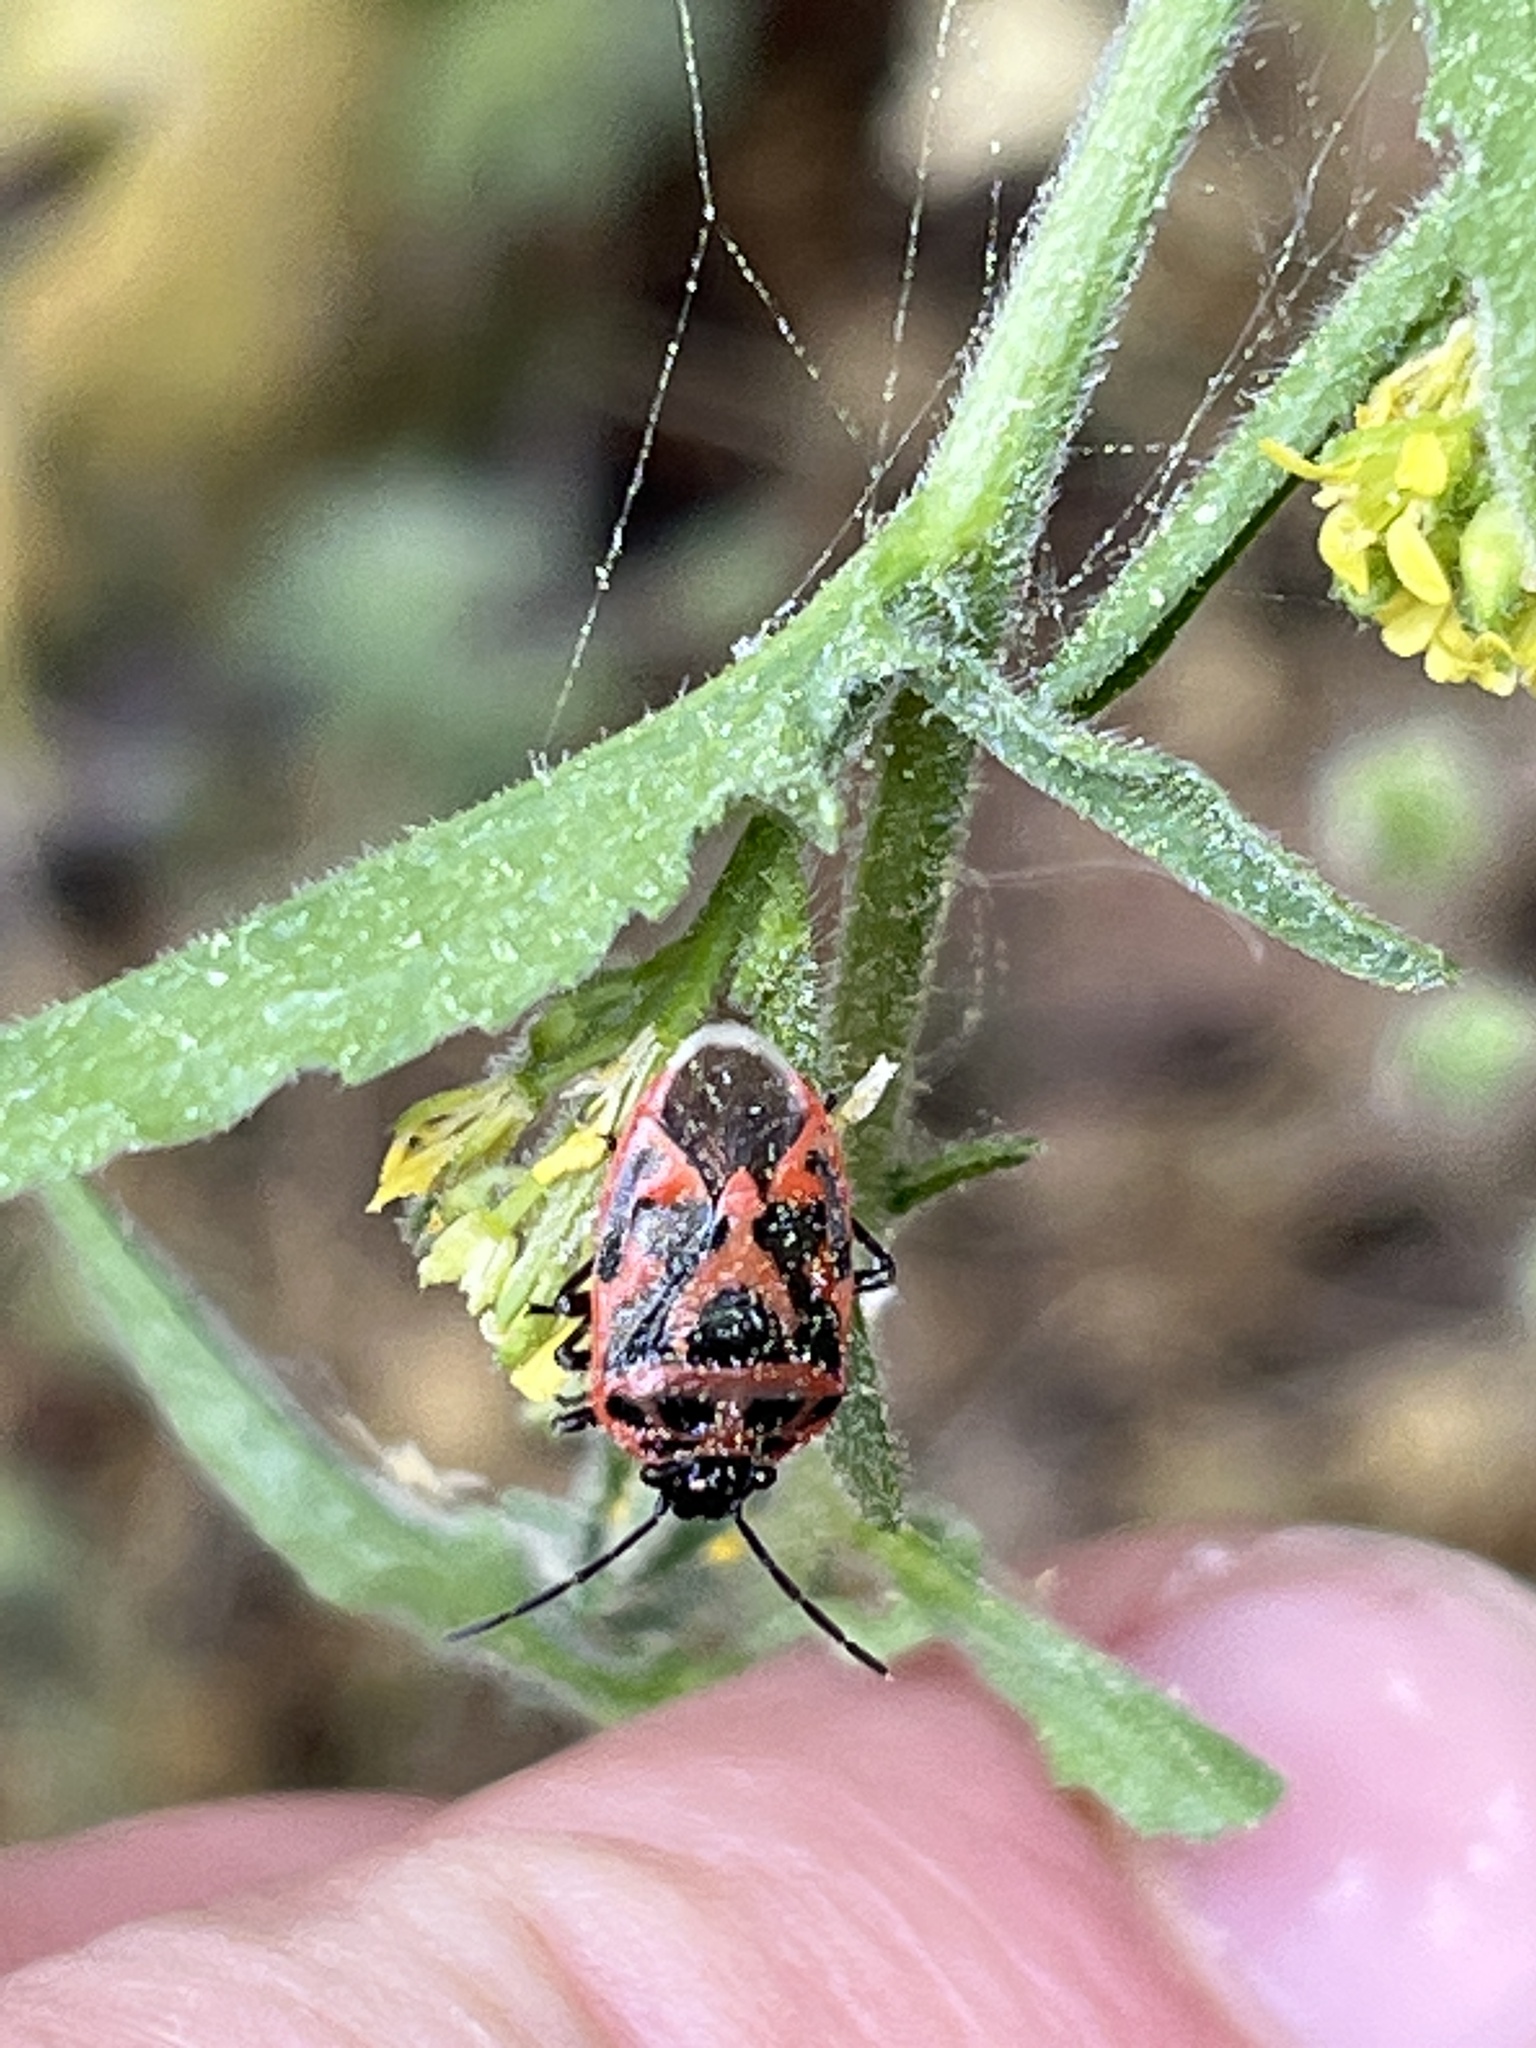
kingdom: Animalia
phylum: Arthropoda
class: Insecta
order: Hemiptera
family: Pentatomidae
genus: Eurydema
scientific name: Eurydema ornata
